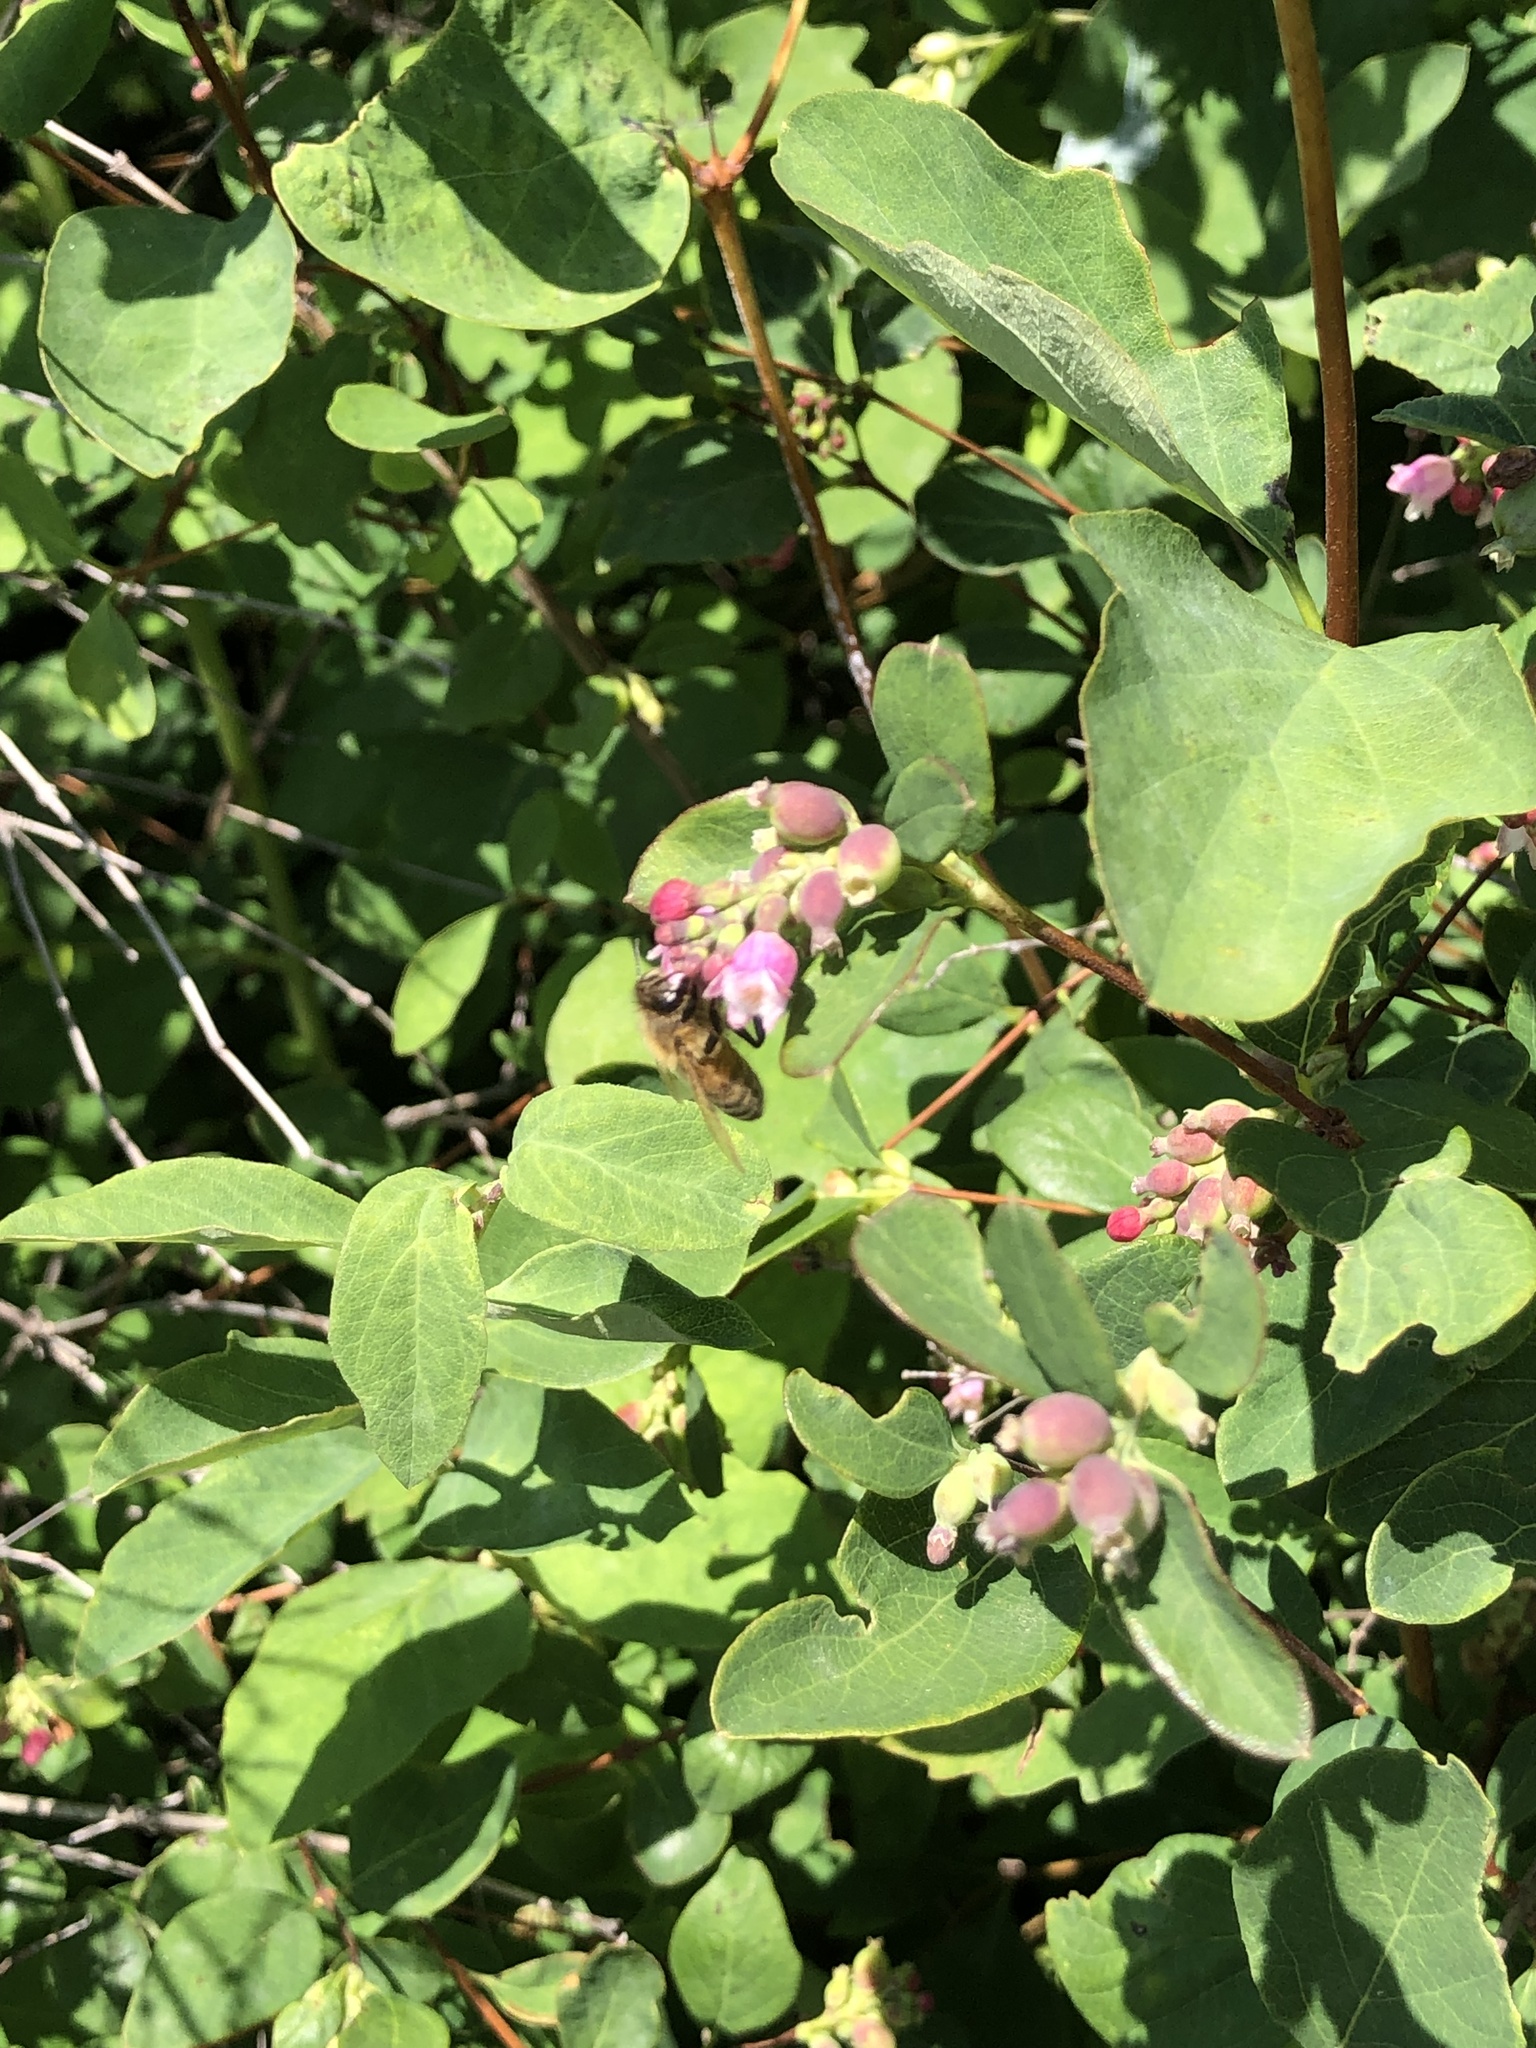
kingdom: Animalia
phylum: Arthropoda
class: Insecta
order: Hymenoptera
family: Apidae
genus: Apis
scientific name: Apis mellifera
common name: Honey bee
